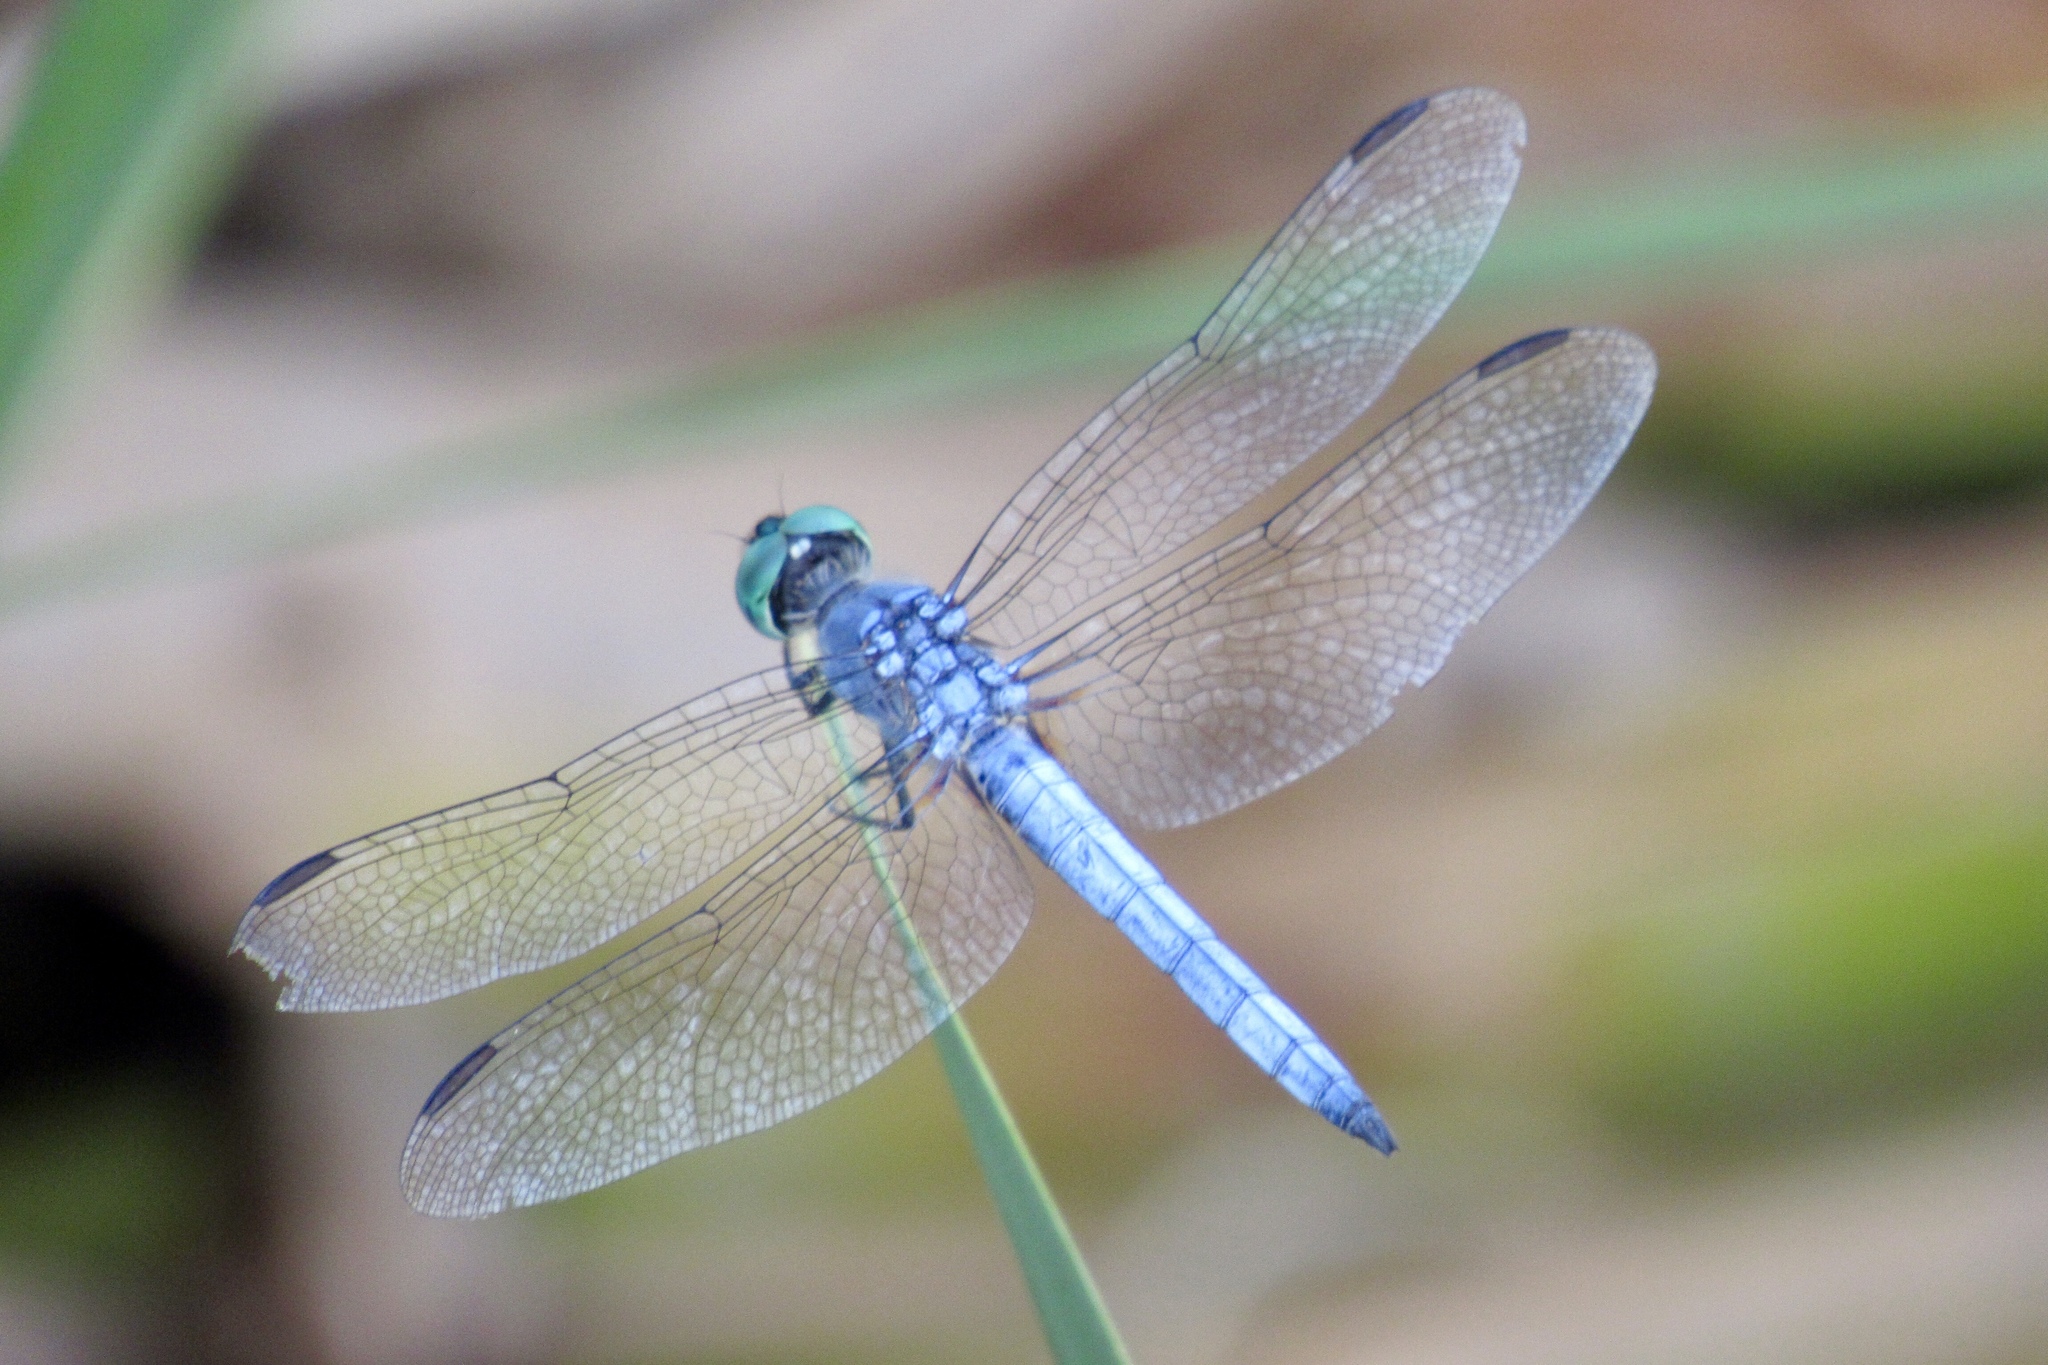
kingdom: Animalia
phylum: Arthropoda
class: Insecta
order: Odonata
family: Libellulidae
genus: Pachydiplax
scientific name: Pachydiplax longipennis
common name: Blue dasher
